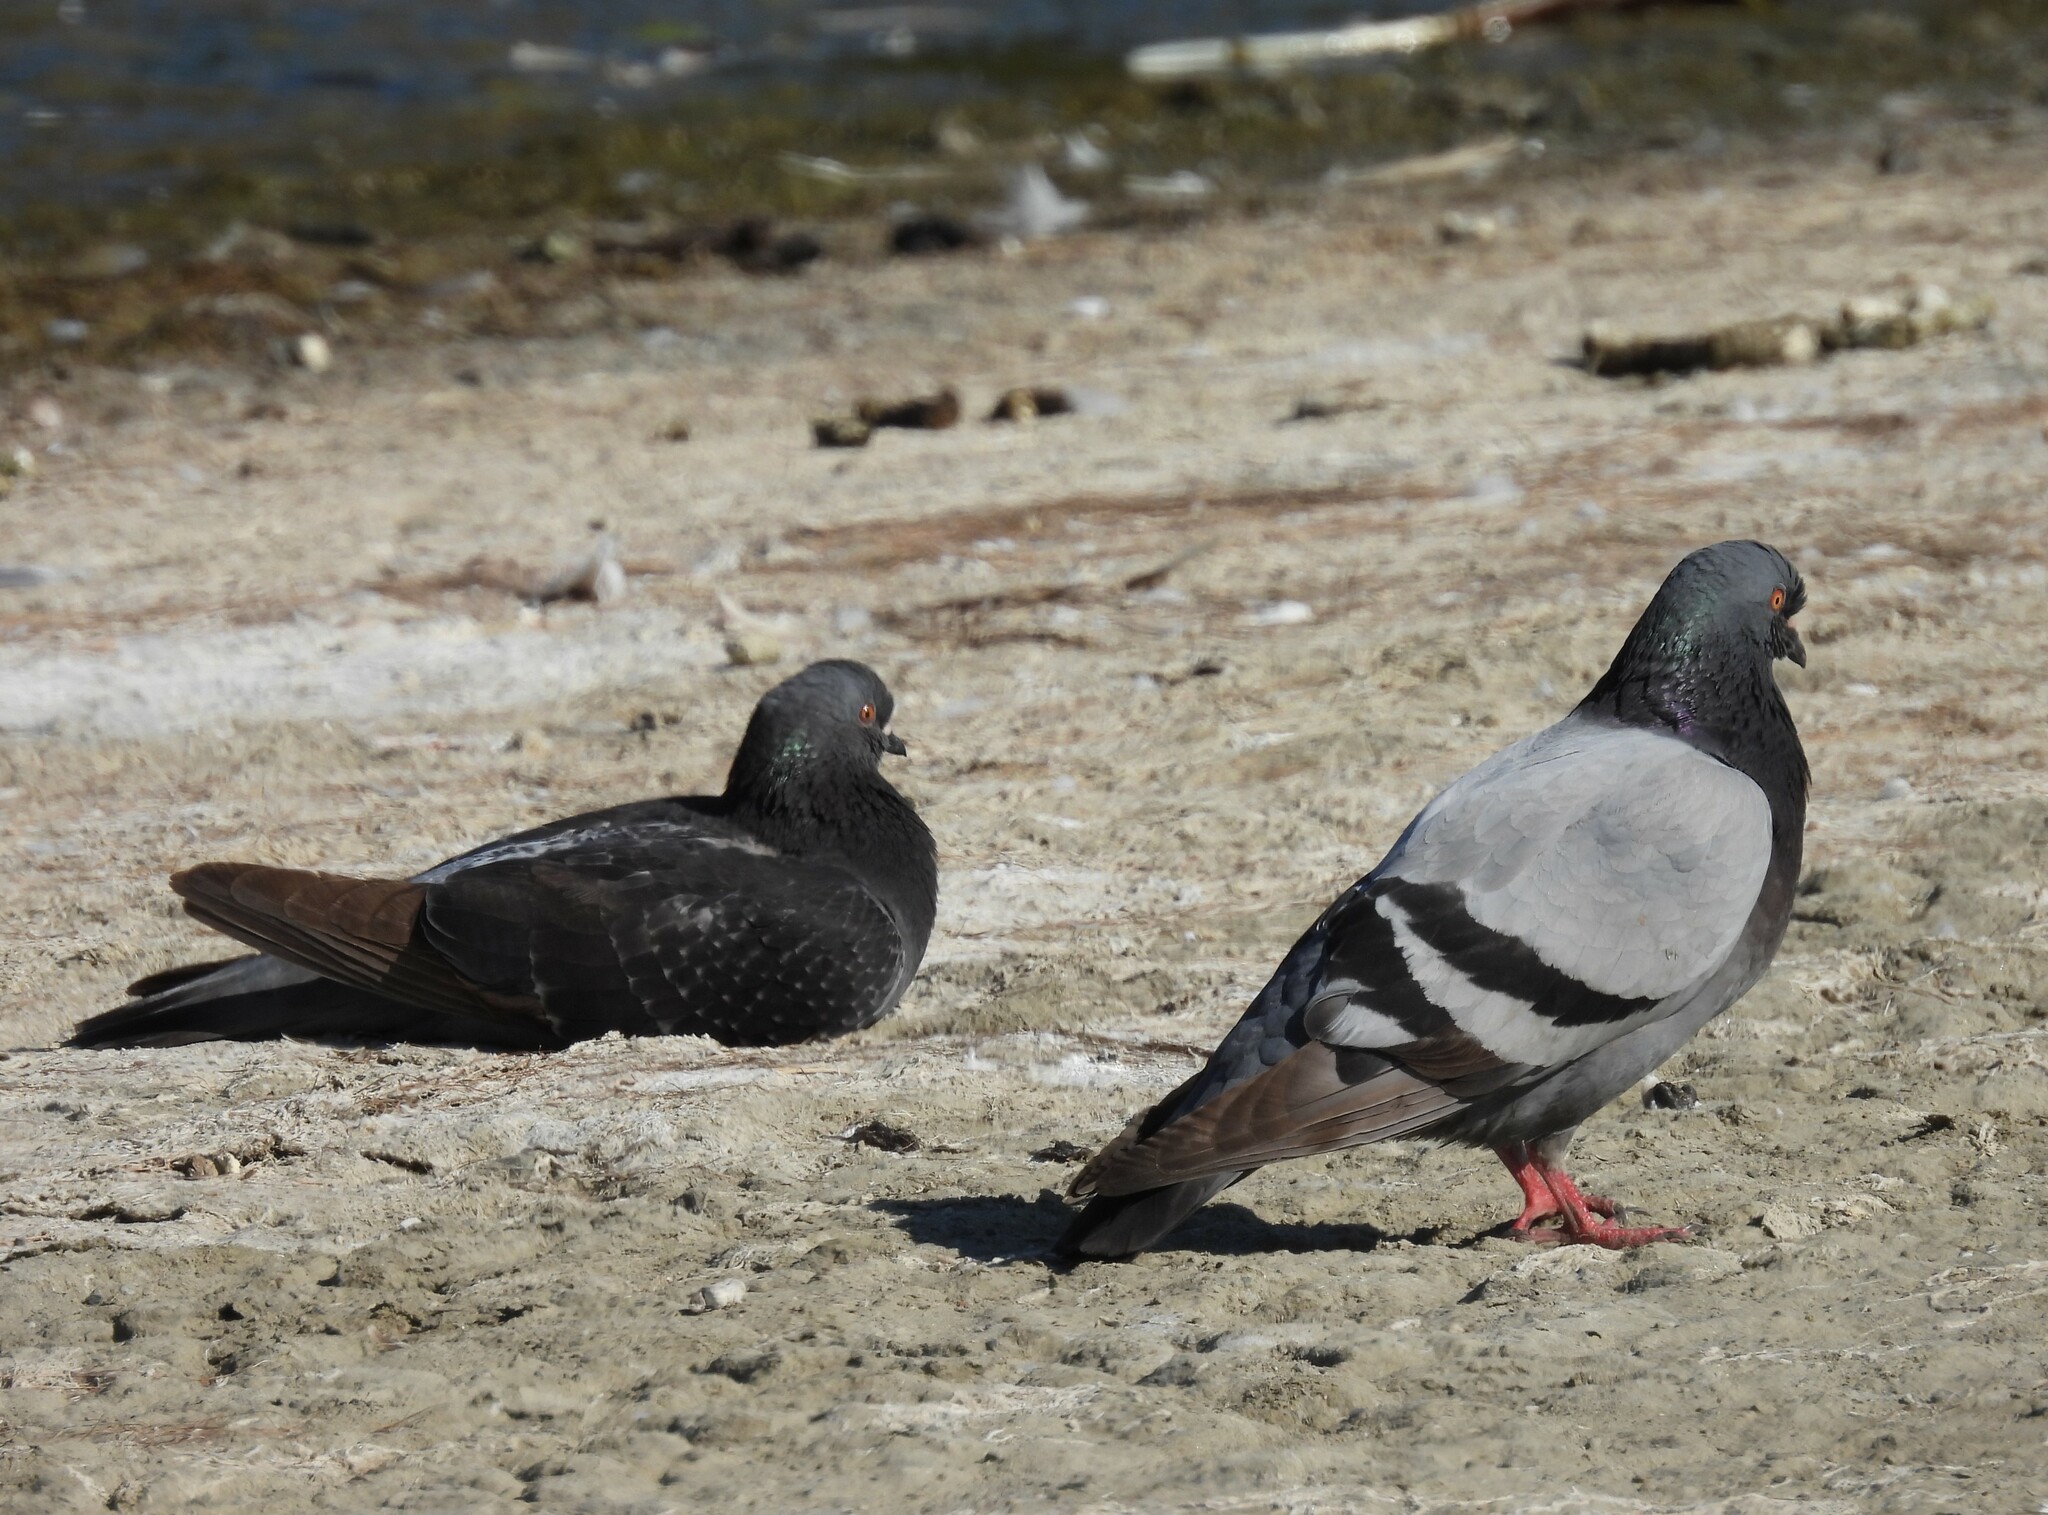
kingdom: Animalia
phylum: Chordata
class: Aves
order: Columbiformes
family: Columbidae
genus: Columba
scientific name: Columba livia
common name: Rock pigeon
